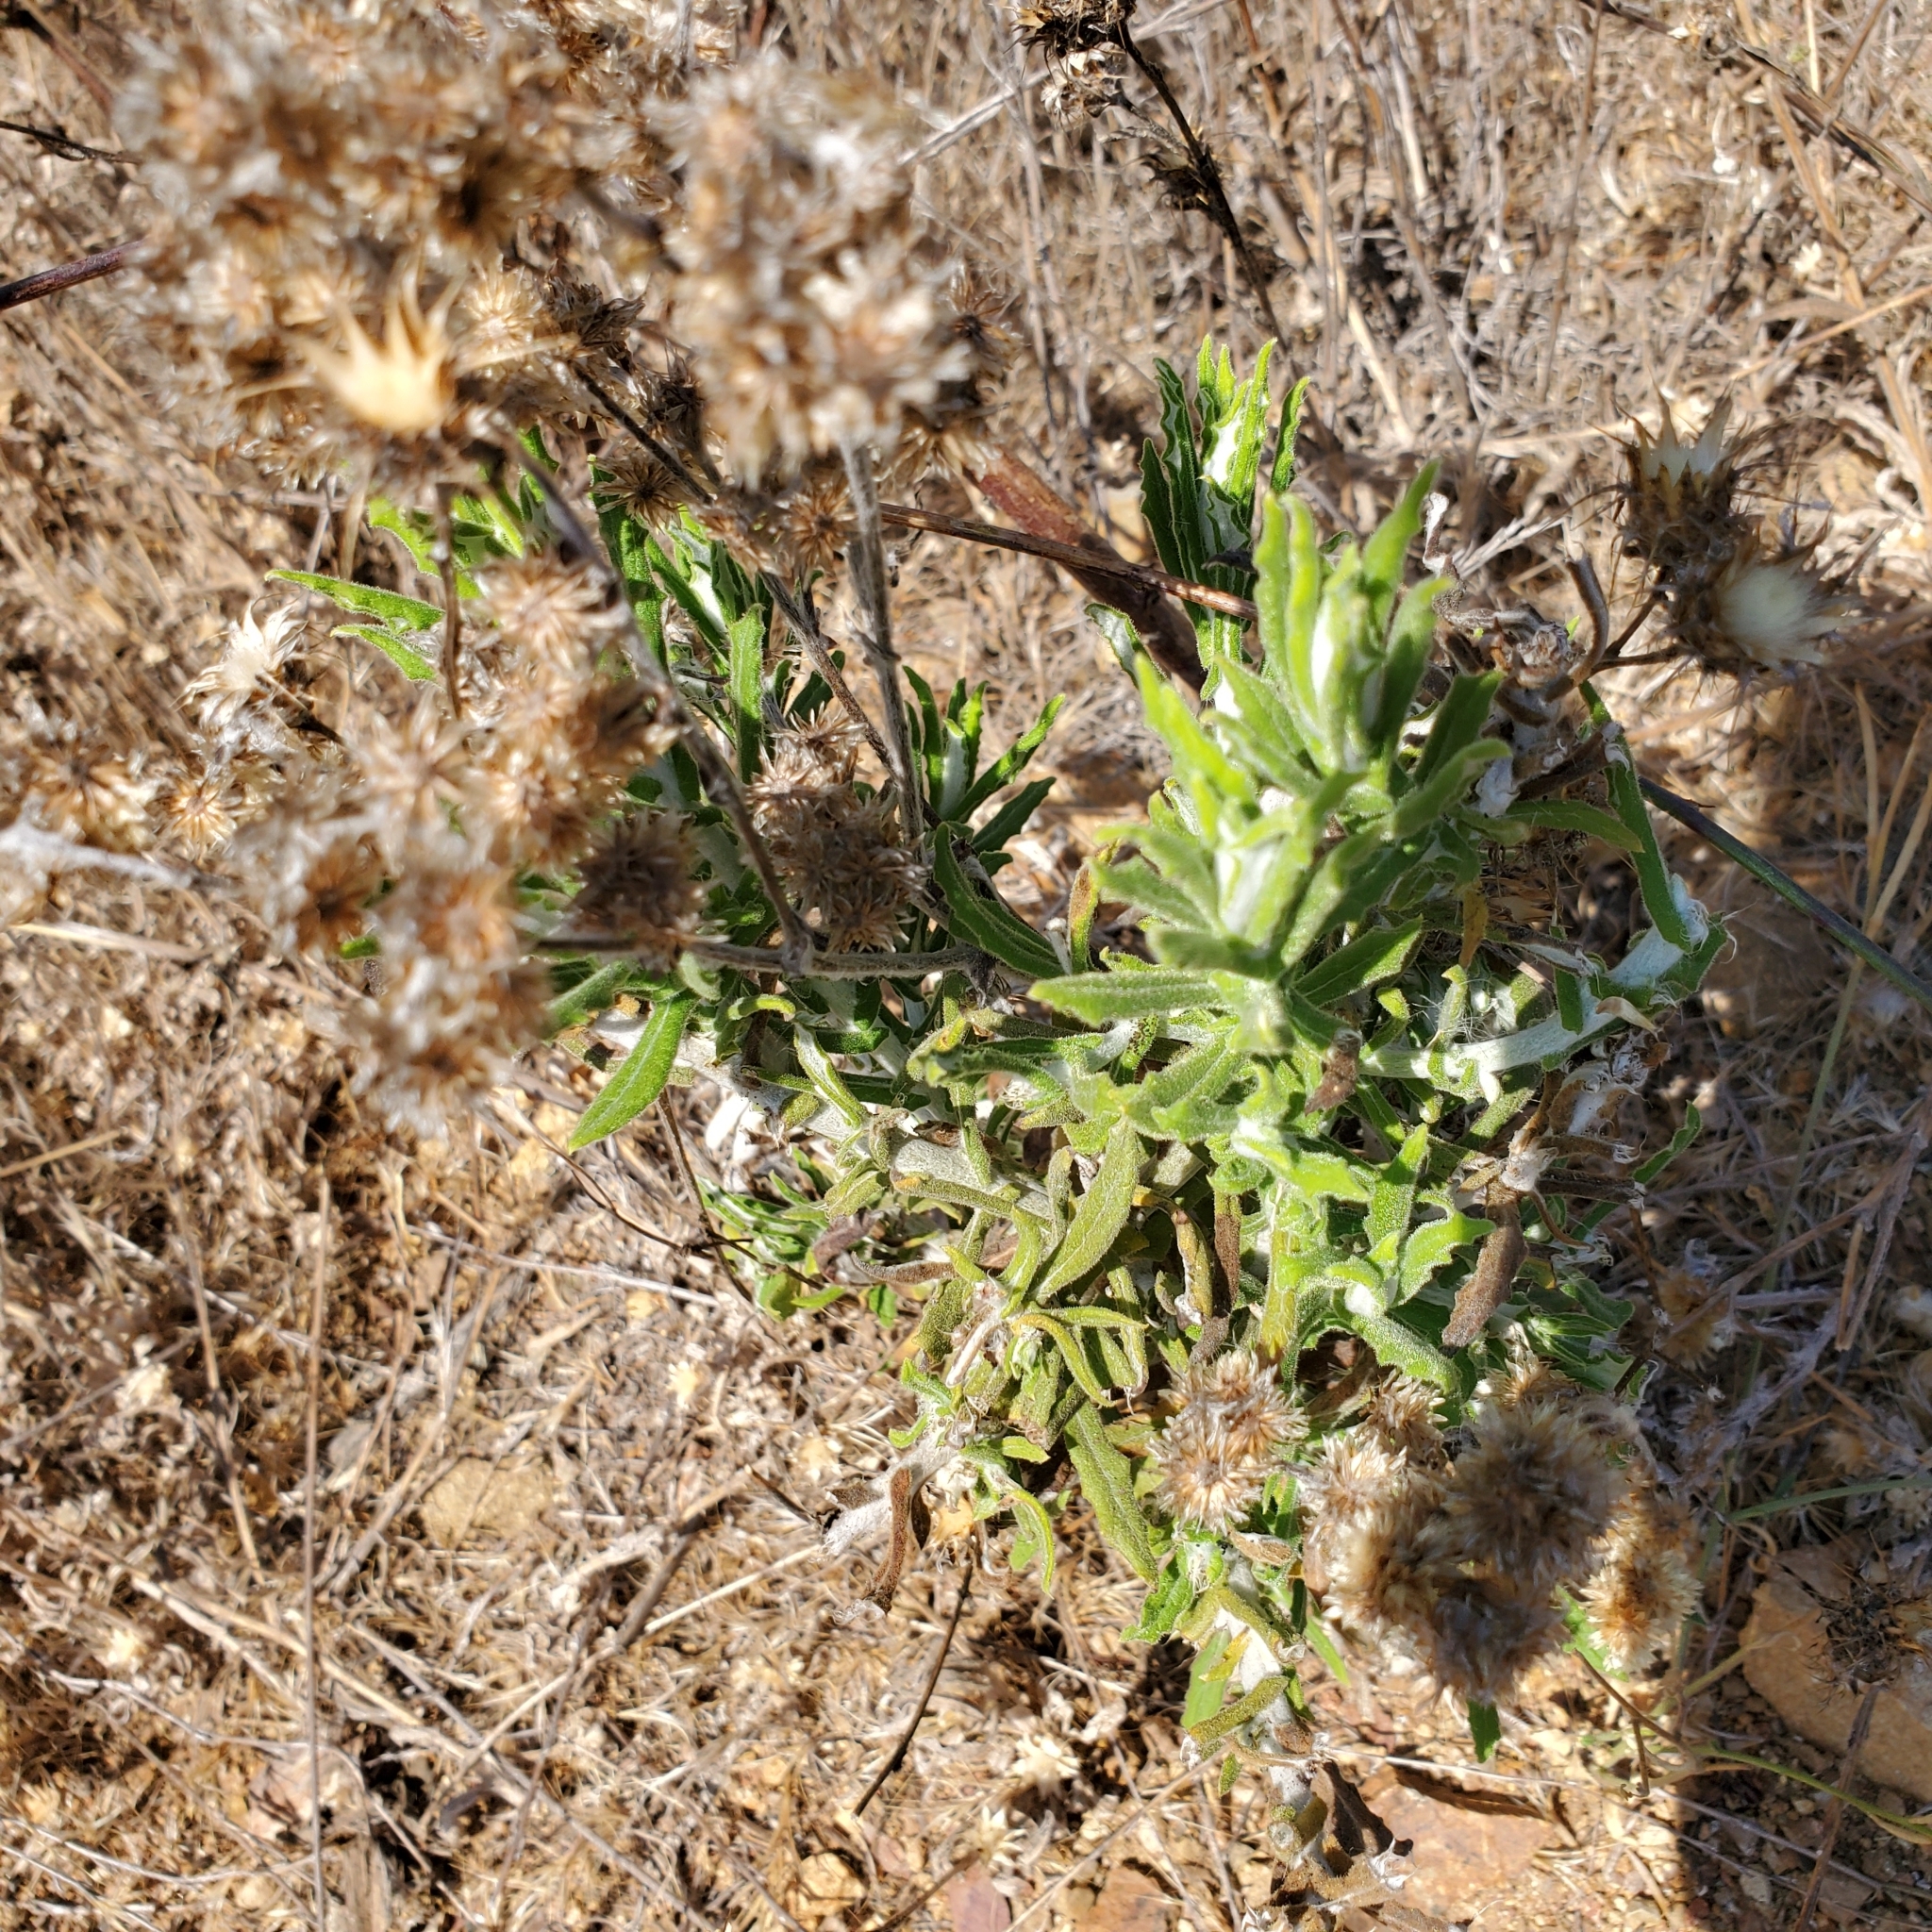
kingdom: Plantae
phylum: Tracheophyta
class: Magnoliopsida
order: Asterales
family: Asteraceae
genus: Pseudognaphalium
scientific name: Pseudognaphalium biolettii
